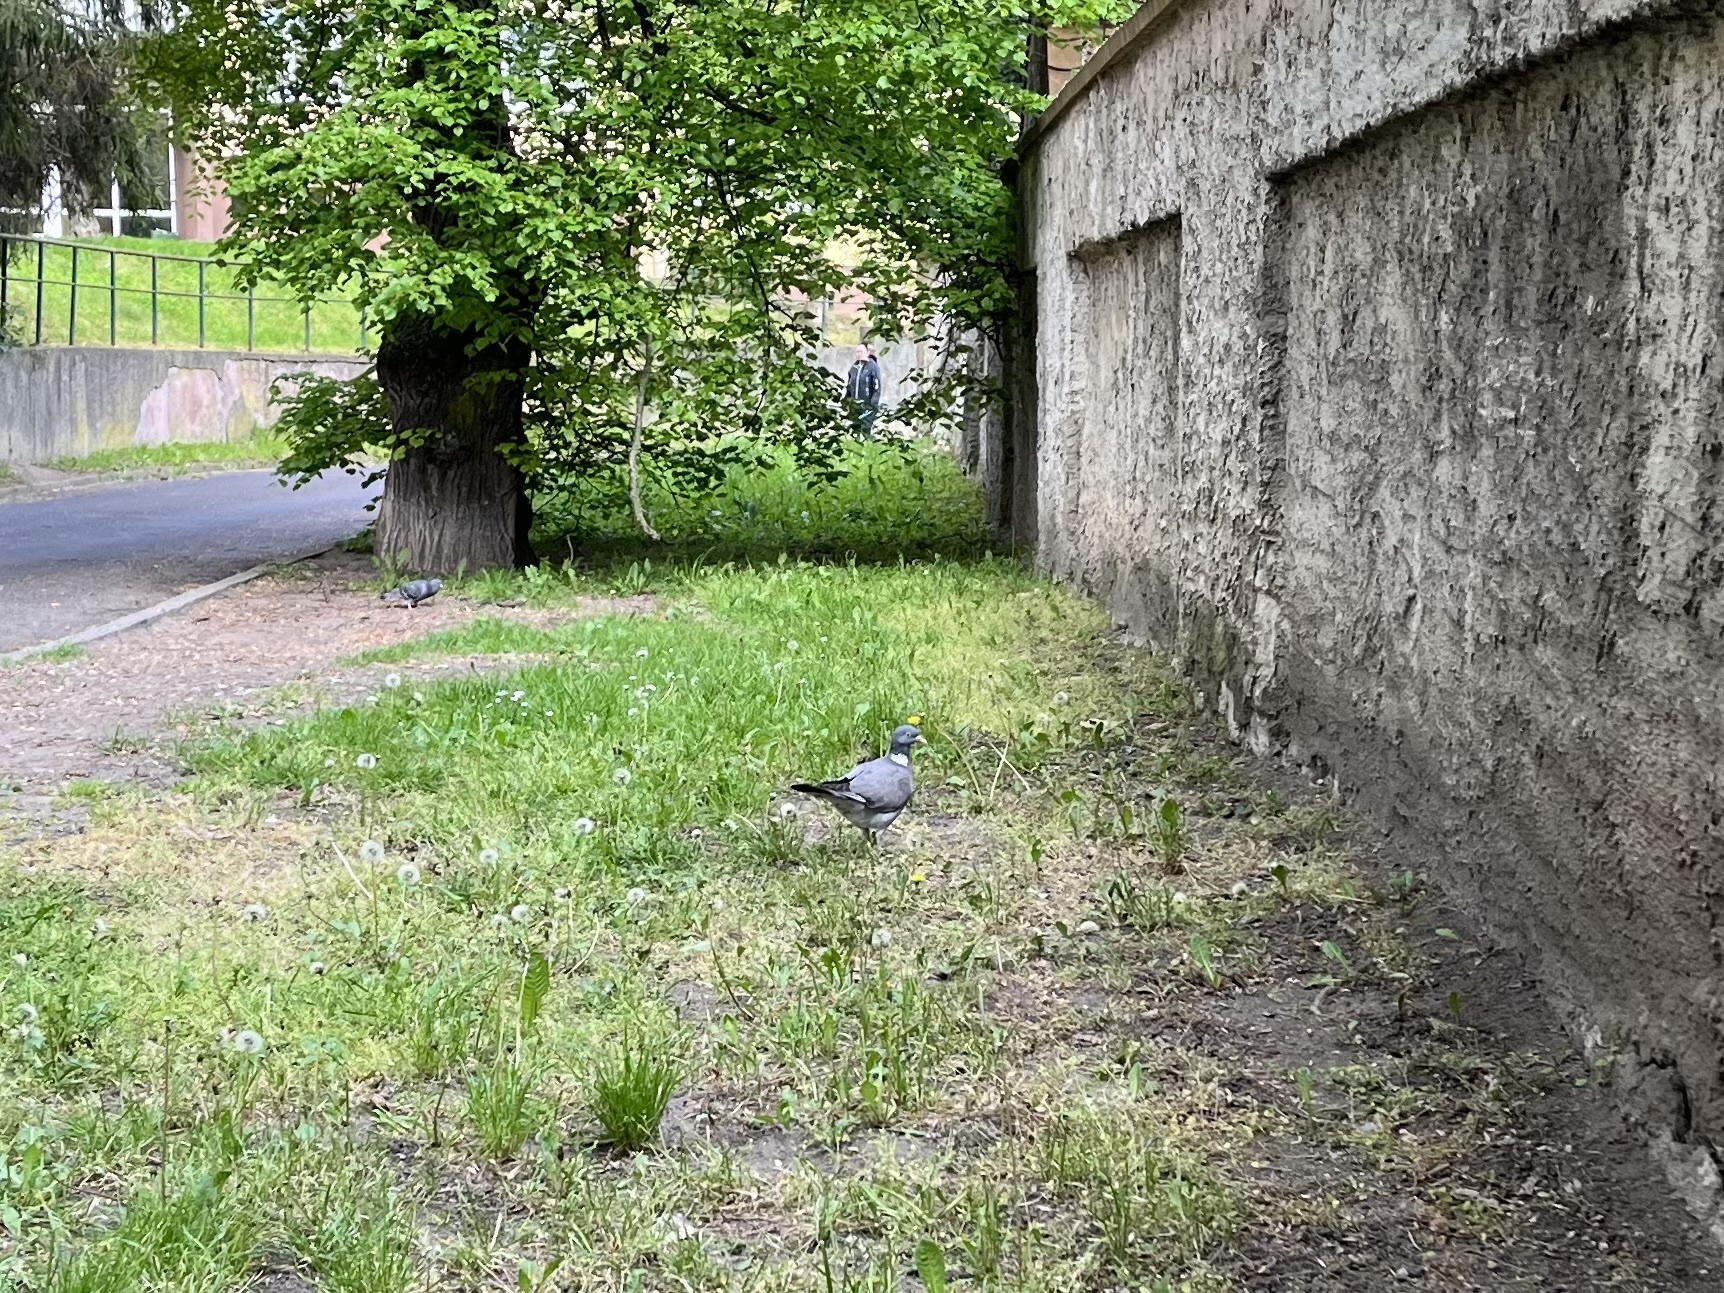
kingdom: Animalia
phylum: Chordata
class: Aves
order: Columbiformes
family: Columbidae
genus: Columba
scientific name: Columba palumbus
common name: Common wood pigeon
